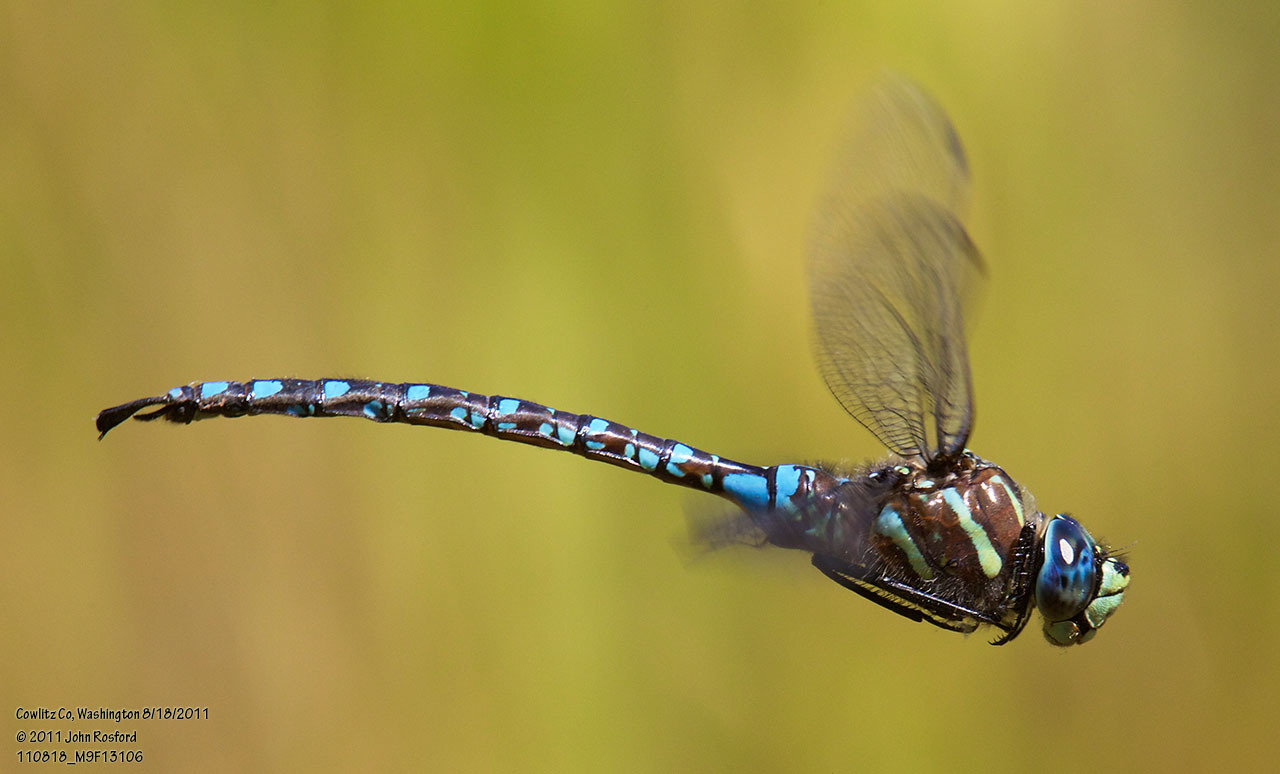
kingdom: Animalia
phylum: Arthropoda
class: Insecta
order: Odonata
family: Aeshnidae
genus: Aeshna
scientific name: Aeshna palmata
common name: Paddle-tailed darner
